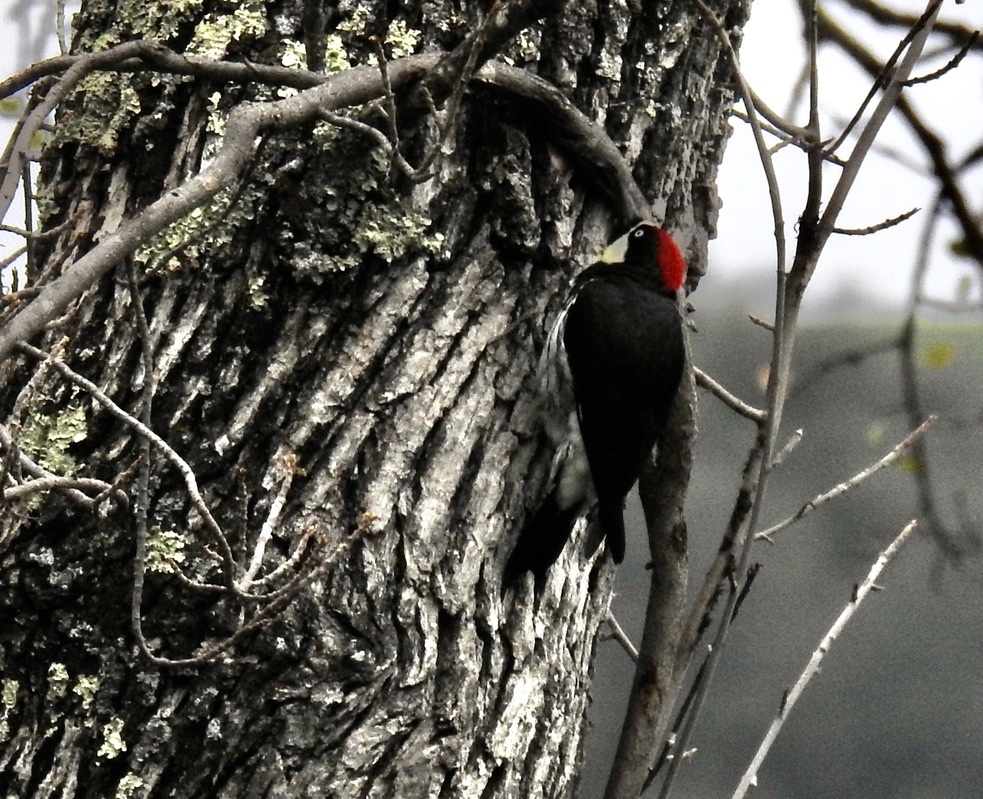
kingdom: Animalia
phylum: Chordata
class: Aves
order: Piciformes
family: Picidae
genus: Melanerpes
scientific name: Melanerpes formicivorus
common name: Acorn woodpecker
